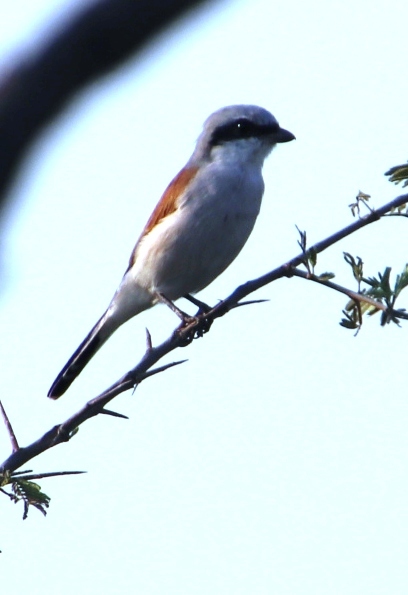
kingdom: Animalia
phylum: Chordata
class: Aves
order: Passeriformes
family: Laniidae
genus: Lanius
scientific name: Lanius collurio
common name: Red-backed shrike
